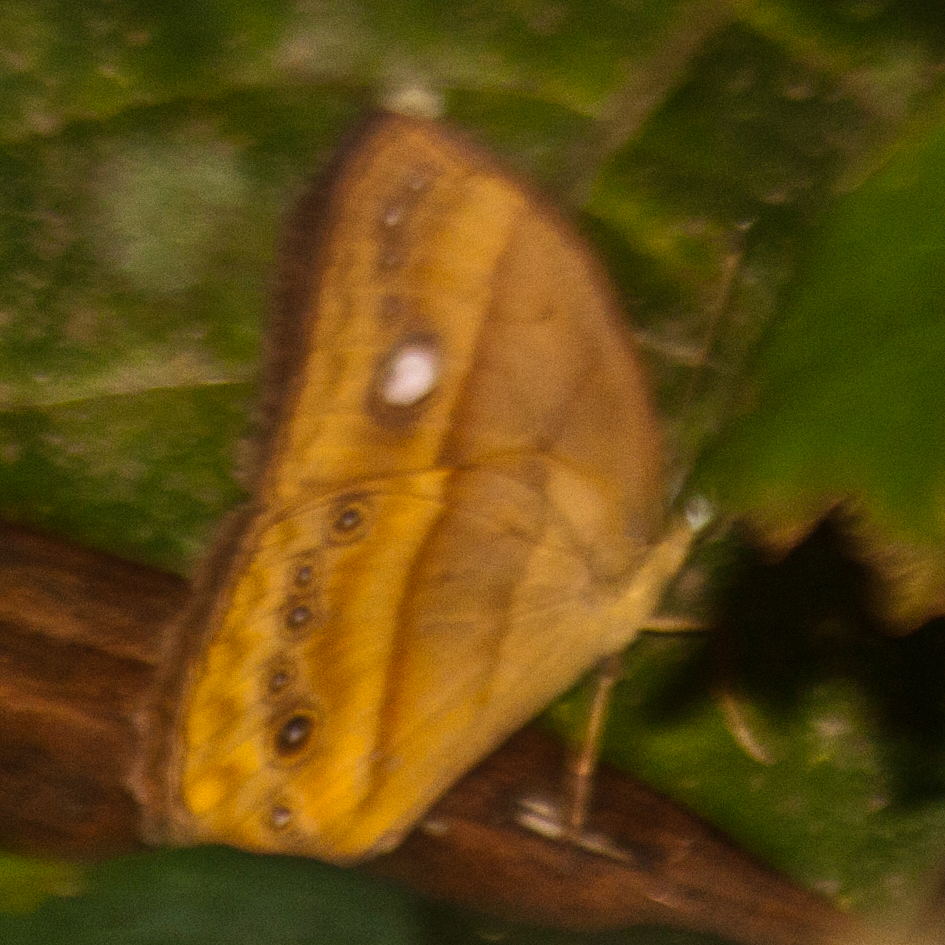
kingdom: Animalia
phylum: Arthropoda
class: Insecta
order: Lepidoptera
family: Nymphalidae
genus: Mycalesis
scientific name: Mycalesis mnasicles
